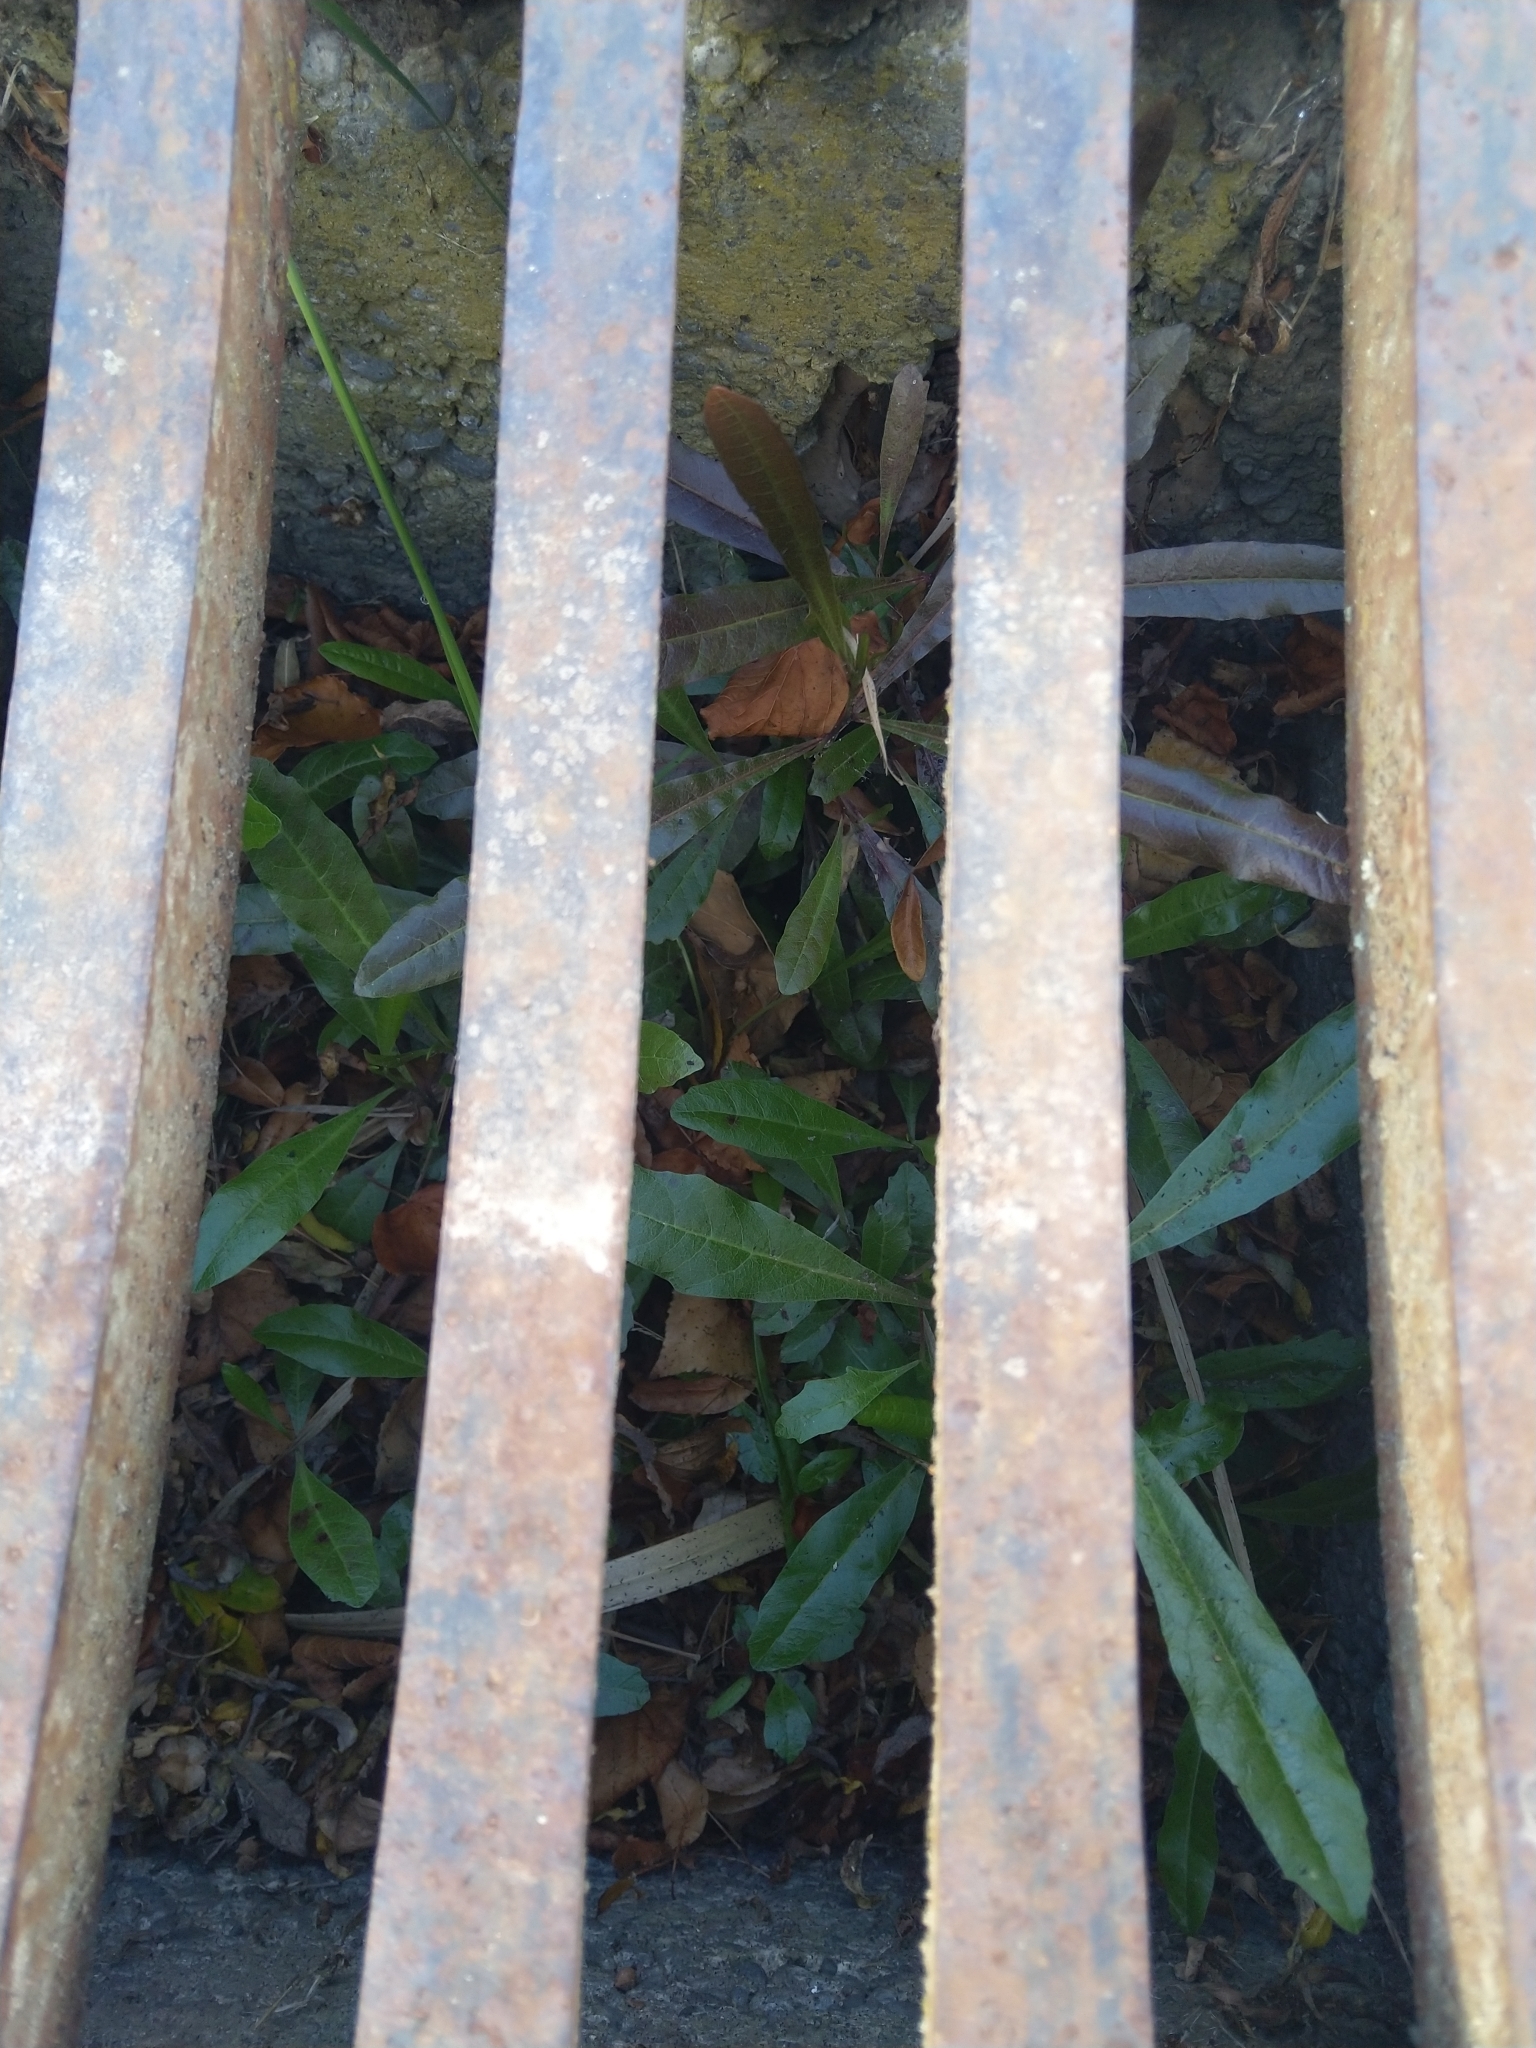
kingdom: Plantae
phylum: Tracheophyta
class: Magnoliopsida
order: Sapindales
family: Sapindaceae
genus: Dodonaea
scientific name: Dodonaea viscosa
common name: Hopbush
